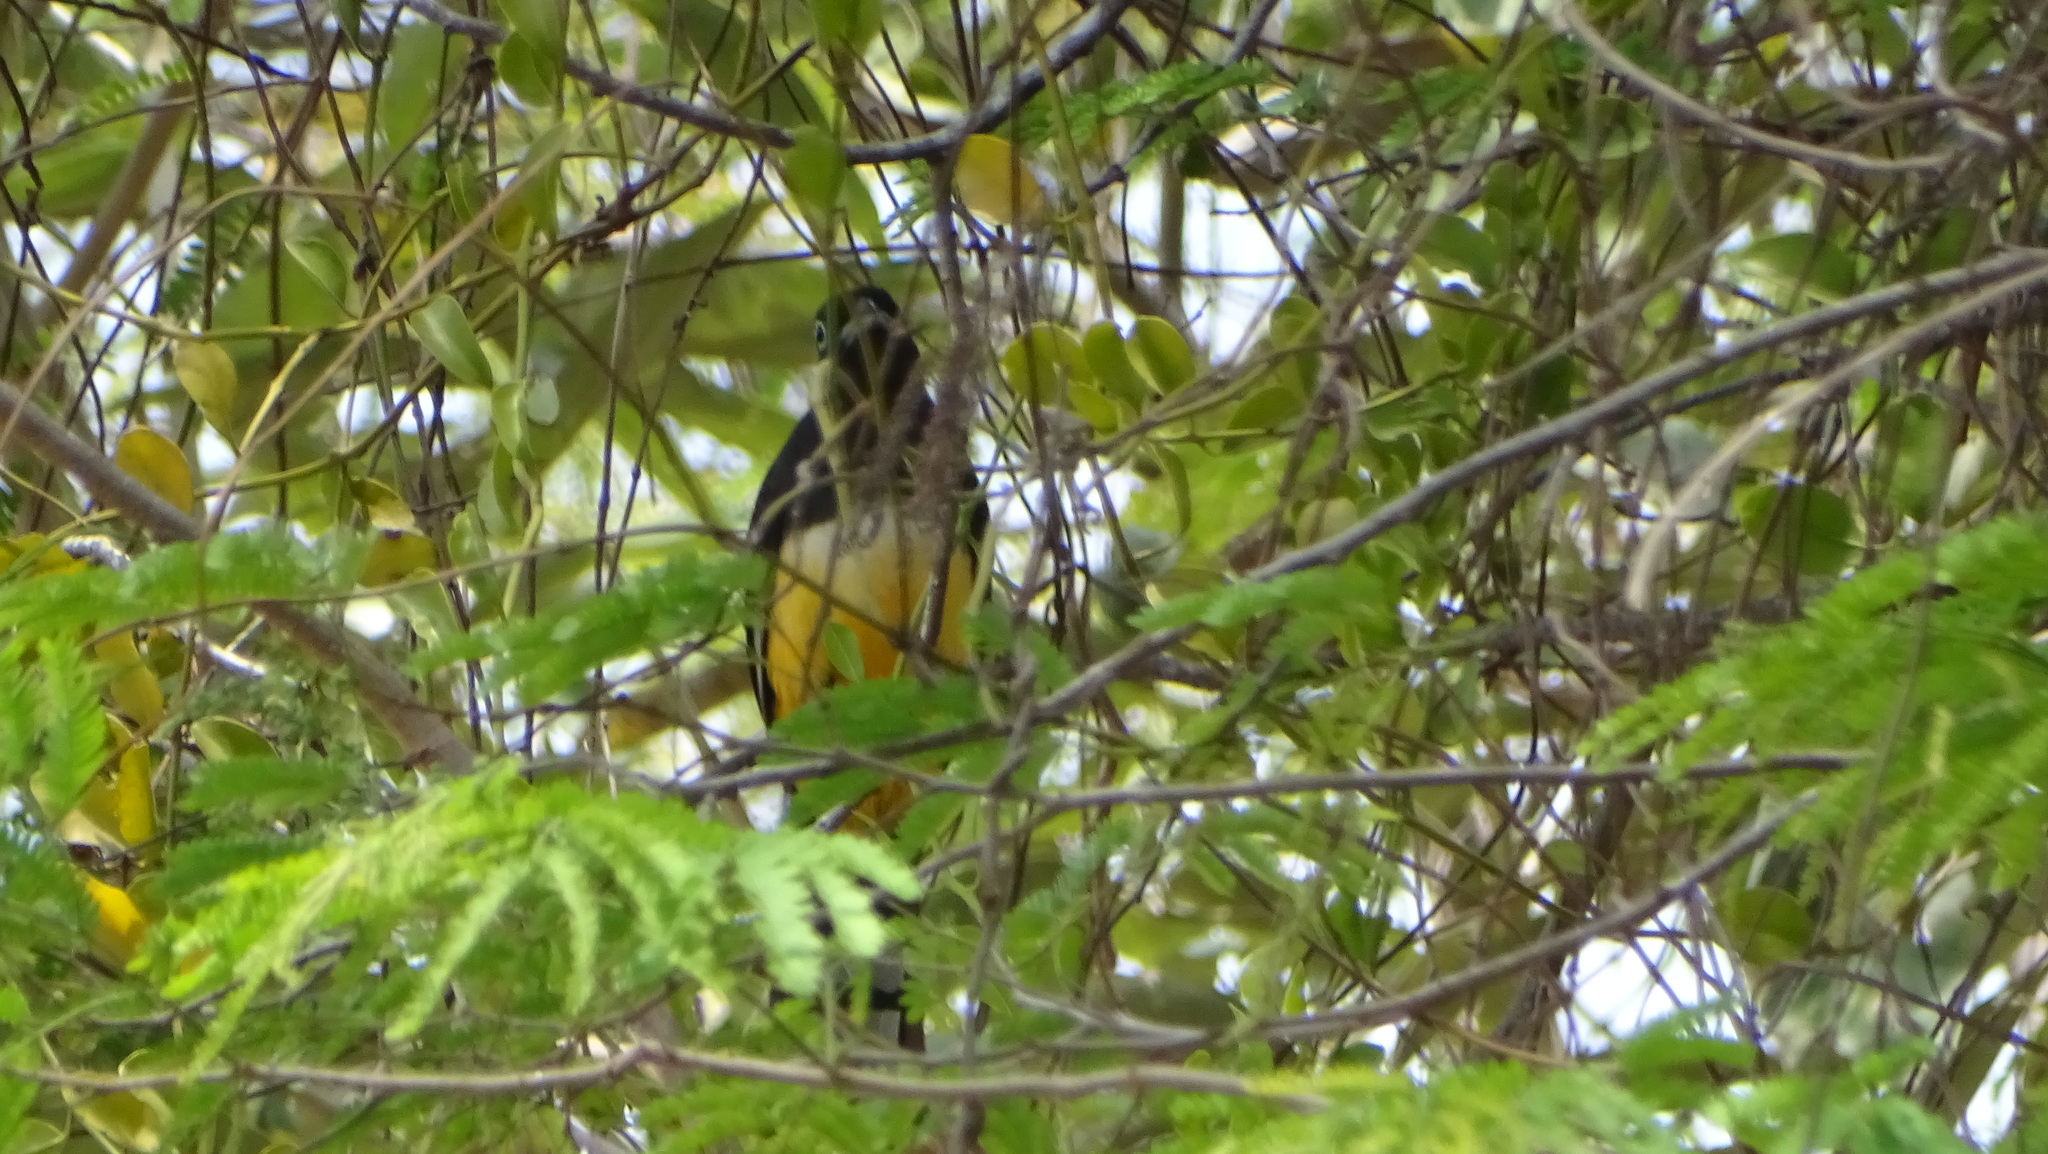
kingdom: Animalia
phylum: Chordata
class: Aves
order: Trogoniformes
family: Trogonidae
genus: Trogon
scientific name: Trogon melanocephalus
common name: Black-headed trogon
